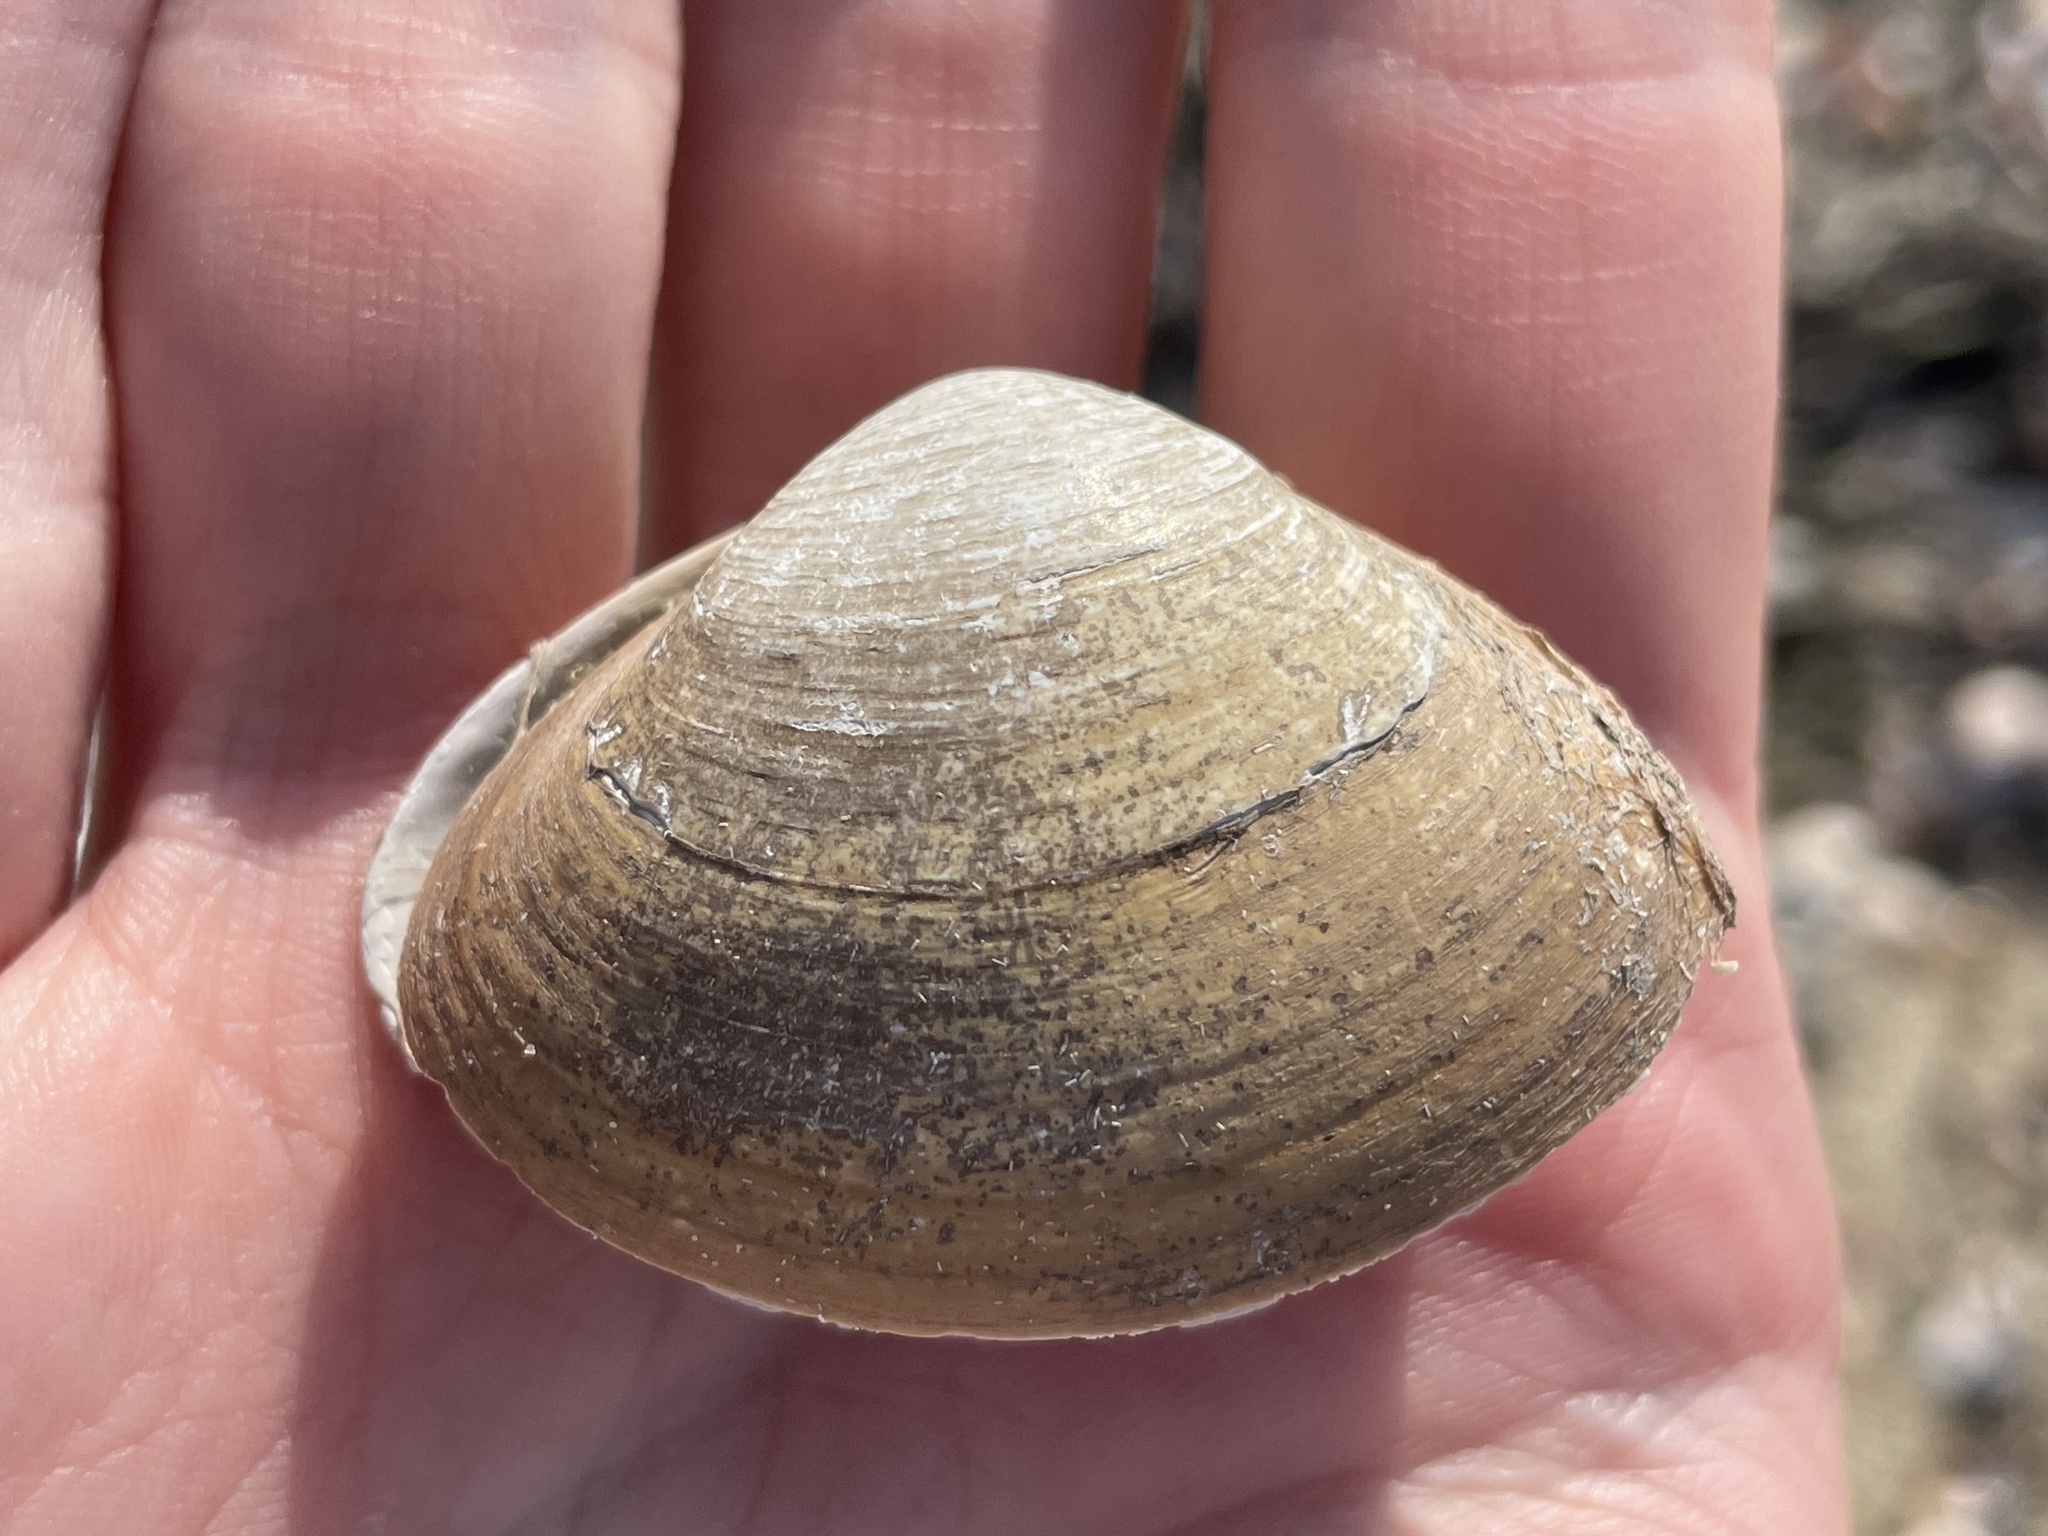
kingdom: Animalia
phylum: Mollusca
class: Bivalvia
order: Venerida
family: Mactridae
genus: Spisula
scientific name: Spisula solidissima
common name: Atlantic surf clam
